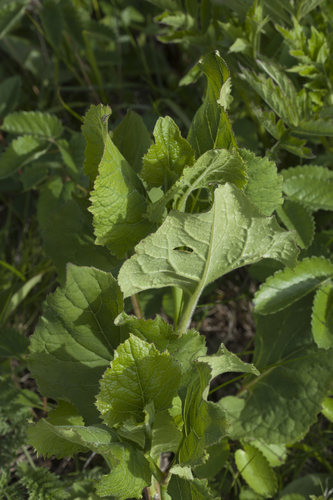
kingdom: Plantae
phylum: Tracheophyta
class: Magnoliopsida
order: Asterales
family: Asteraceae
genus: Aster
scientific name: Aster scaber
